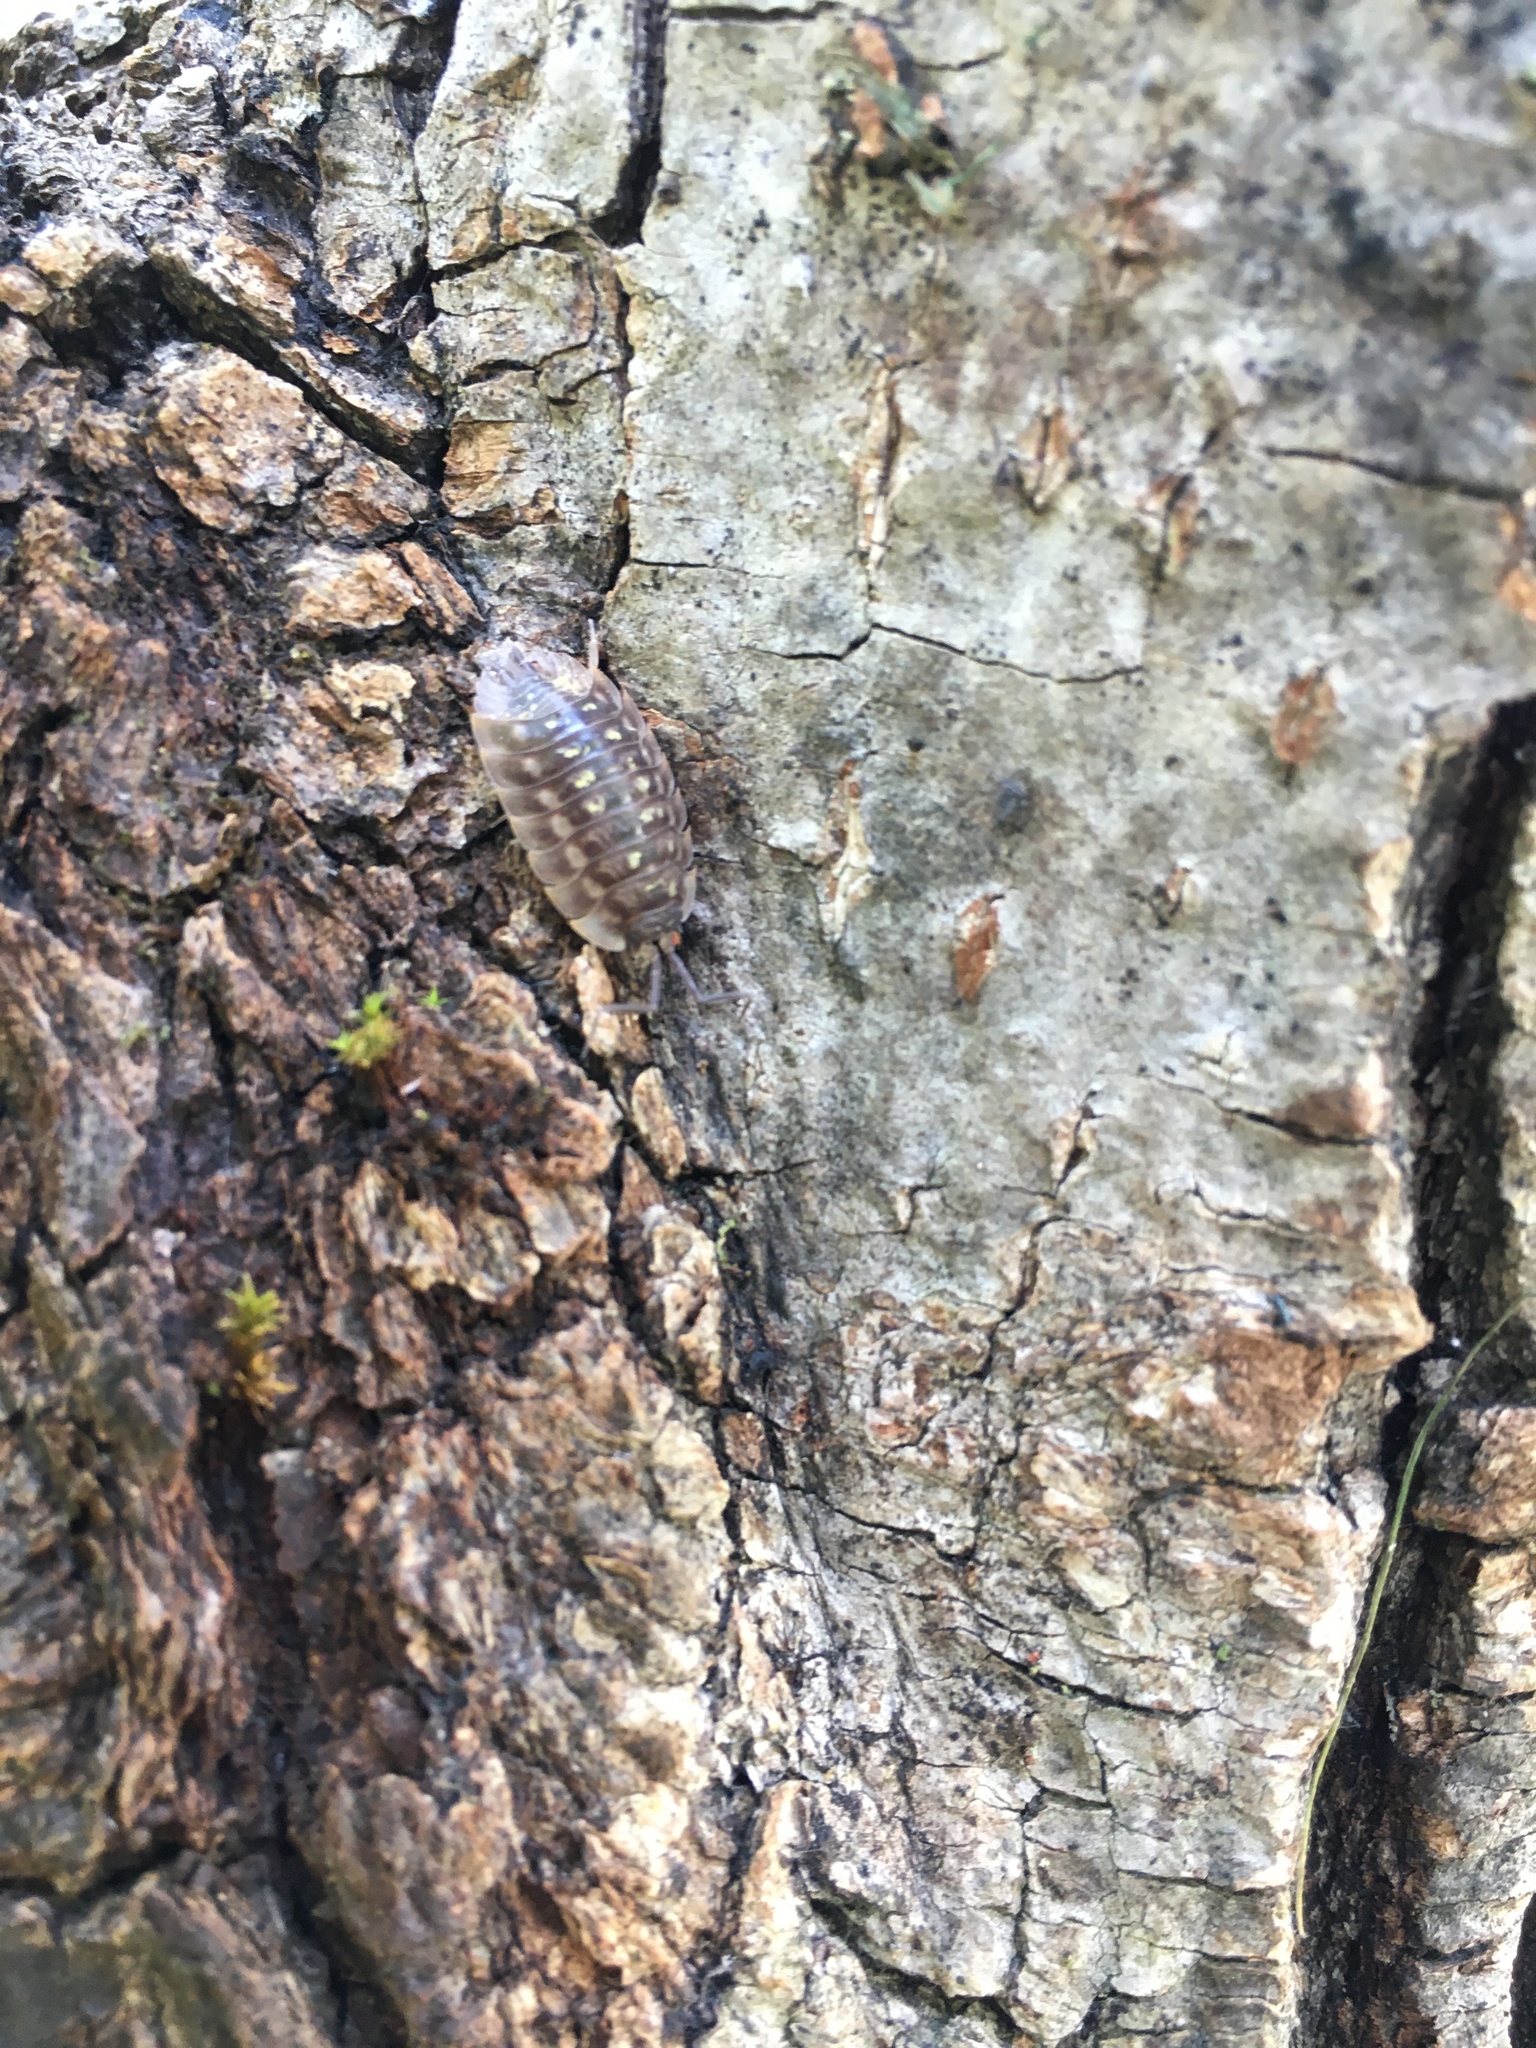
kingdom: Animalia
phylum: Arthropoda
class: Malacostraca
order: Isopoda
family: Oniscidae
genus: Oniscus
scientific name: Oniscus asellus
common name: Common shiny woodlouse
